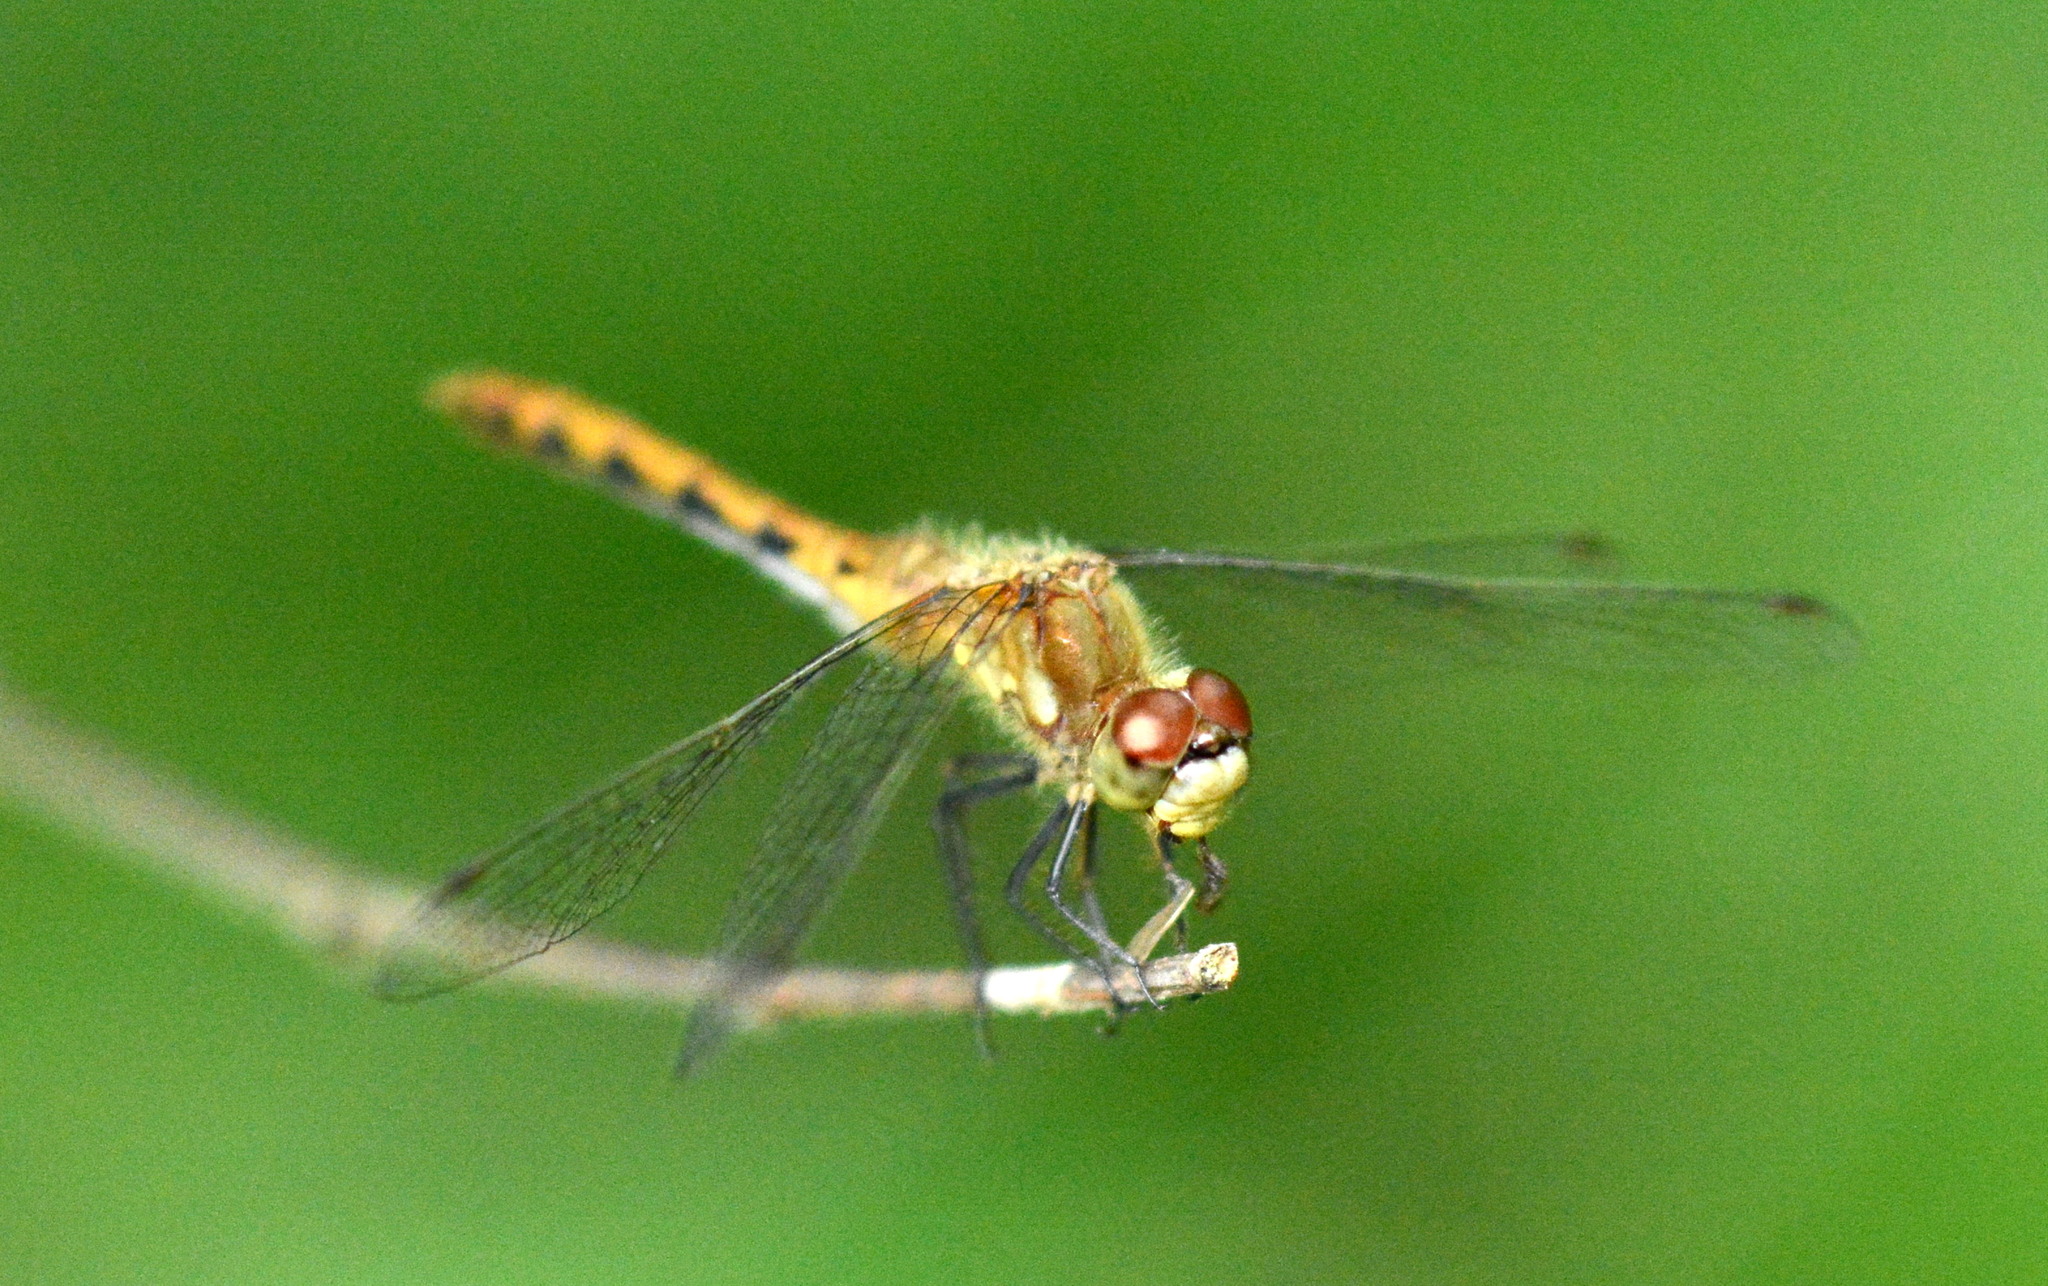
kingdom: Animalia
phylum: Arthropoda
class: Insecta
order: Odonata
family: Libellulidae
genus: Sympetrum
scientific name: Sympetrum obtrusum
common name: White-faced meadowhawk
